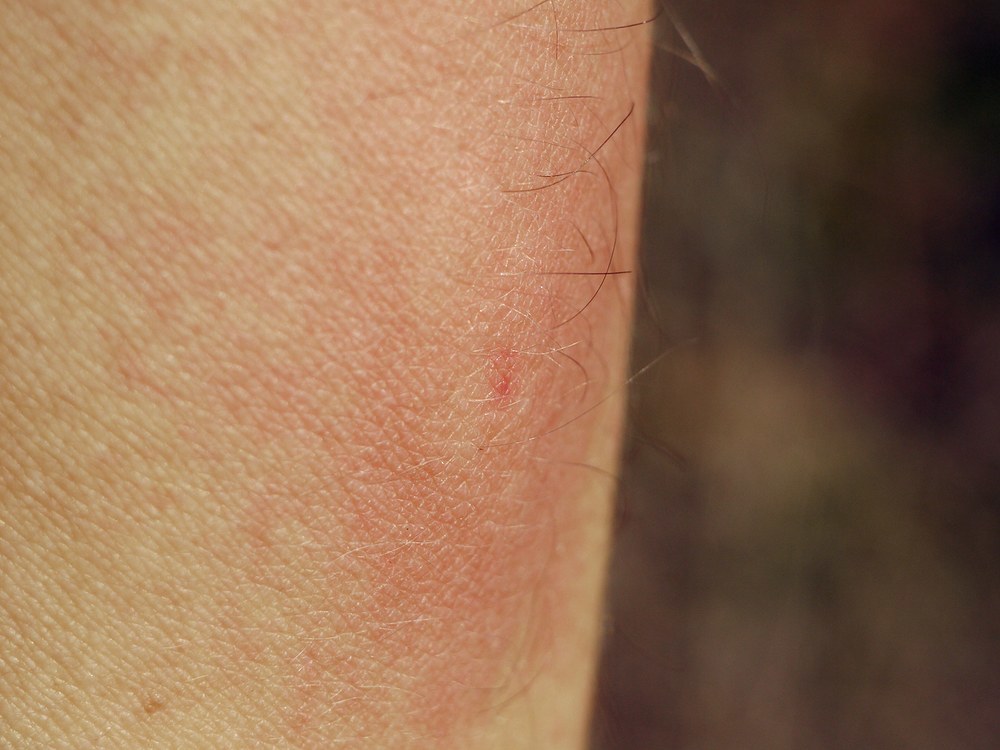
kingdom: Animalia
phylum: Arthropoda
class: Insecta
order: Hymenoptera
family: Eumenidae
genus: Polistes
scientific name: Polistes nimpha
